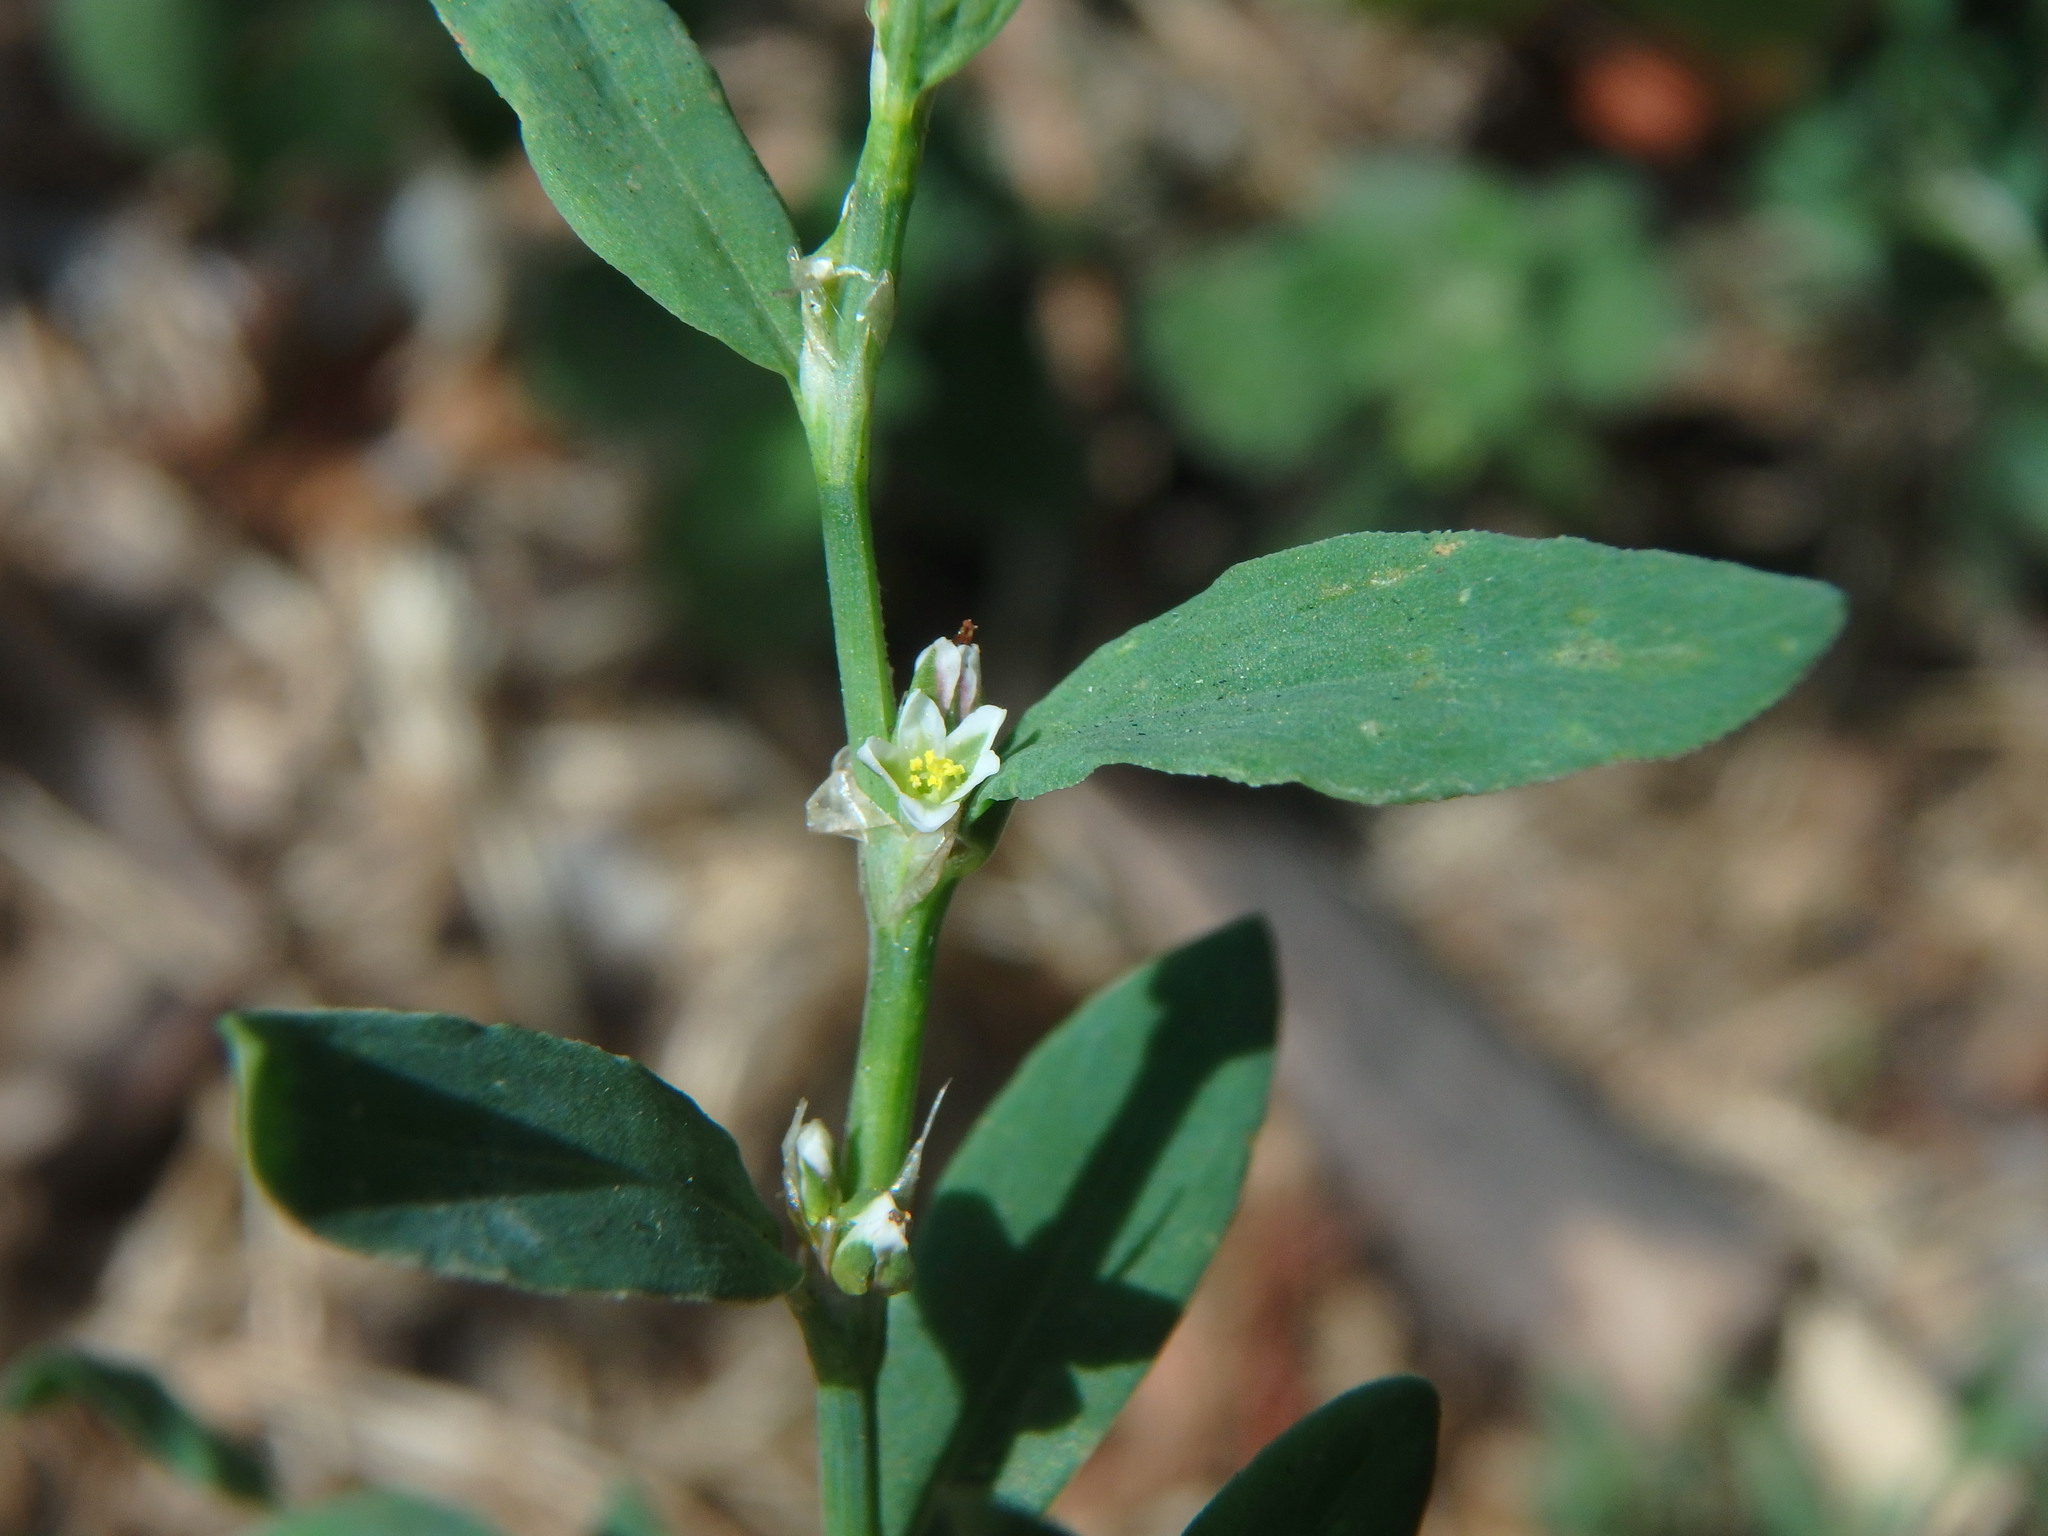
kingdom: Plantae
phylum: Tracheophyta
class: Magnoliopsida
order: Caryophyllales
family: Polygonaceae
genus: Polygonum
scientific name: Polygonum aviculare
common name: Prostrate knotweed
